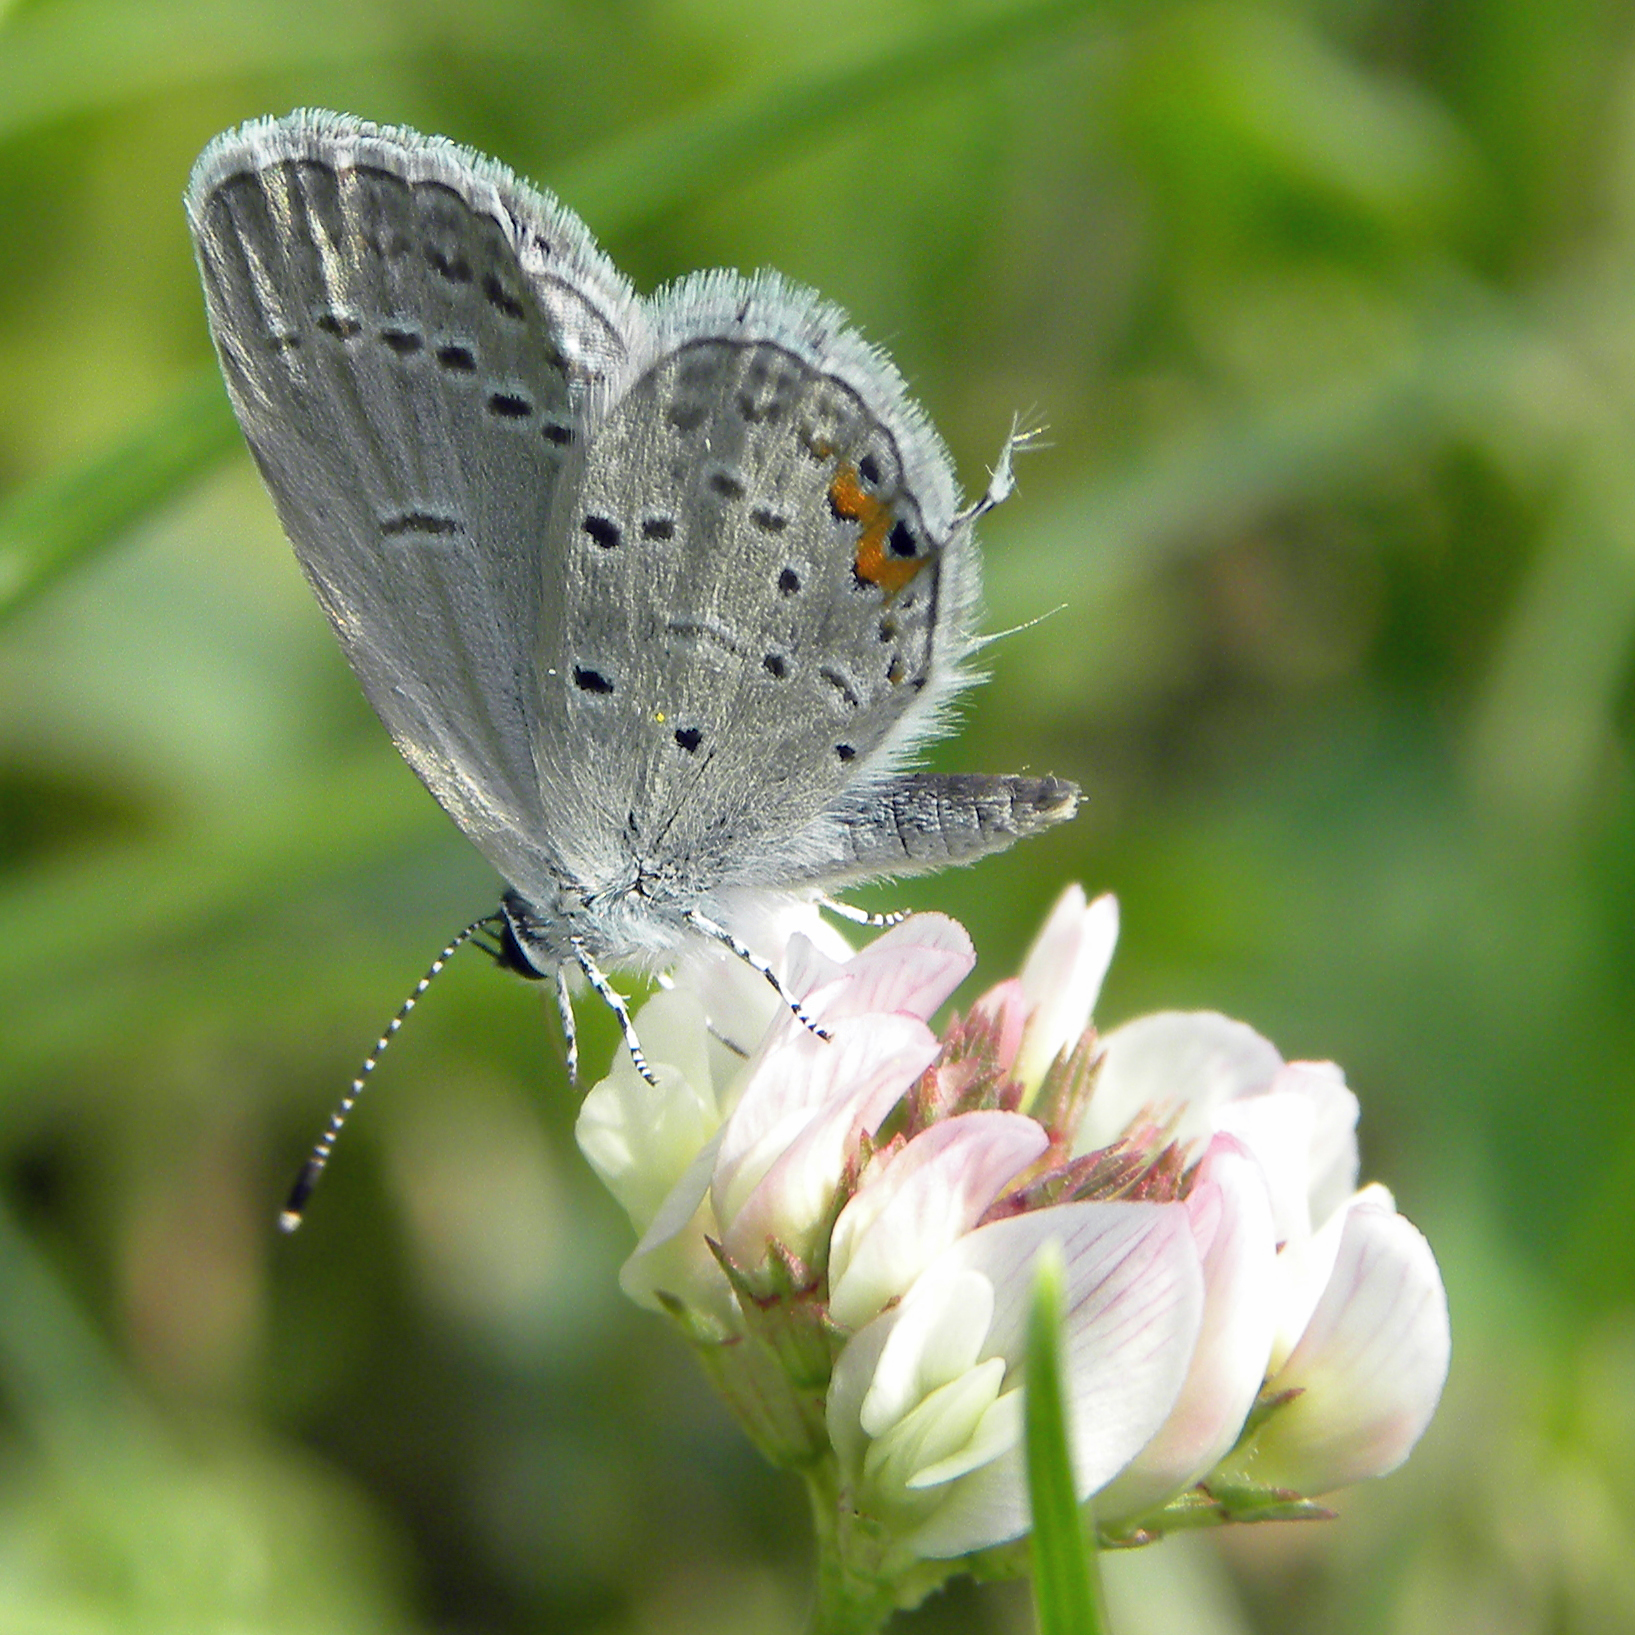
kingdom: Animalia
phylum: Arthropoda
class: Insecta
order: Lepidoptera
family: Lycaenidae
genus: Elkalyce
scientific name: Elkalyce comyntas
